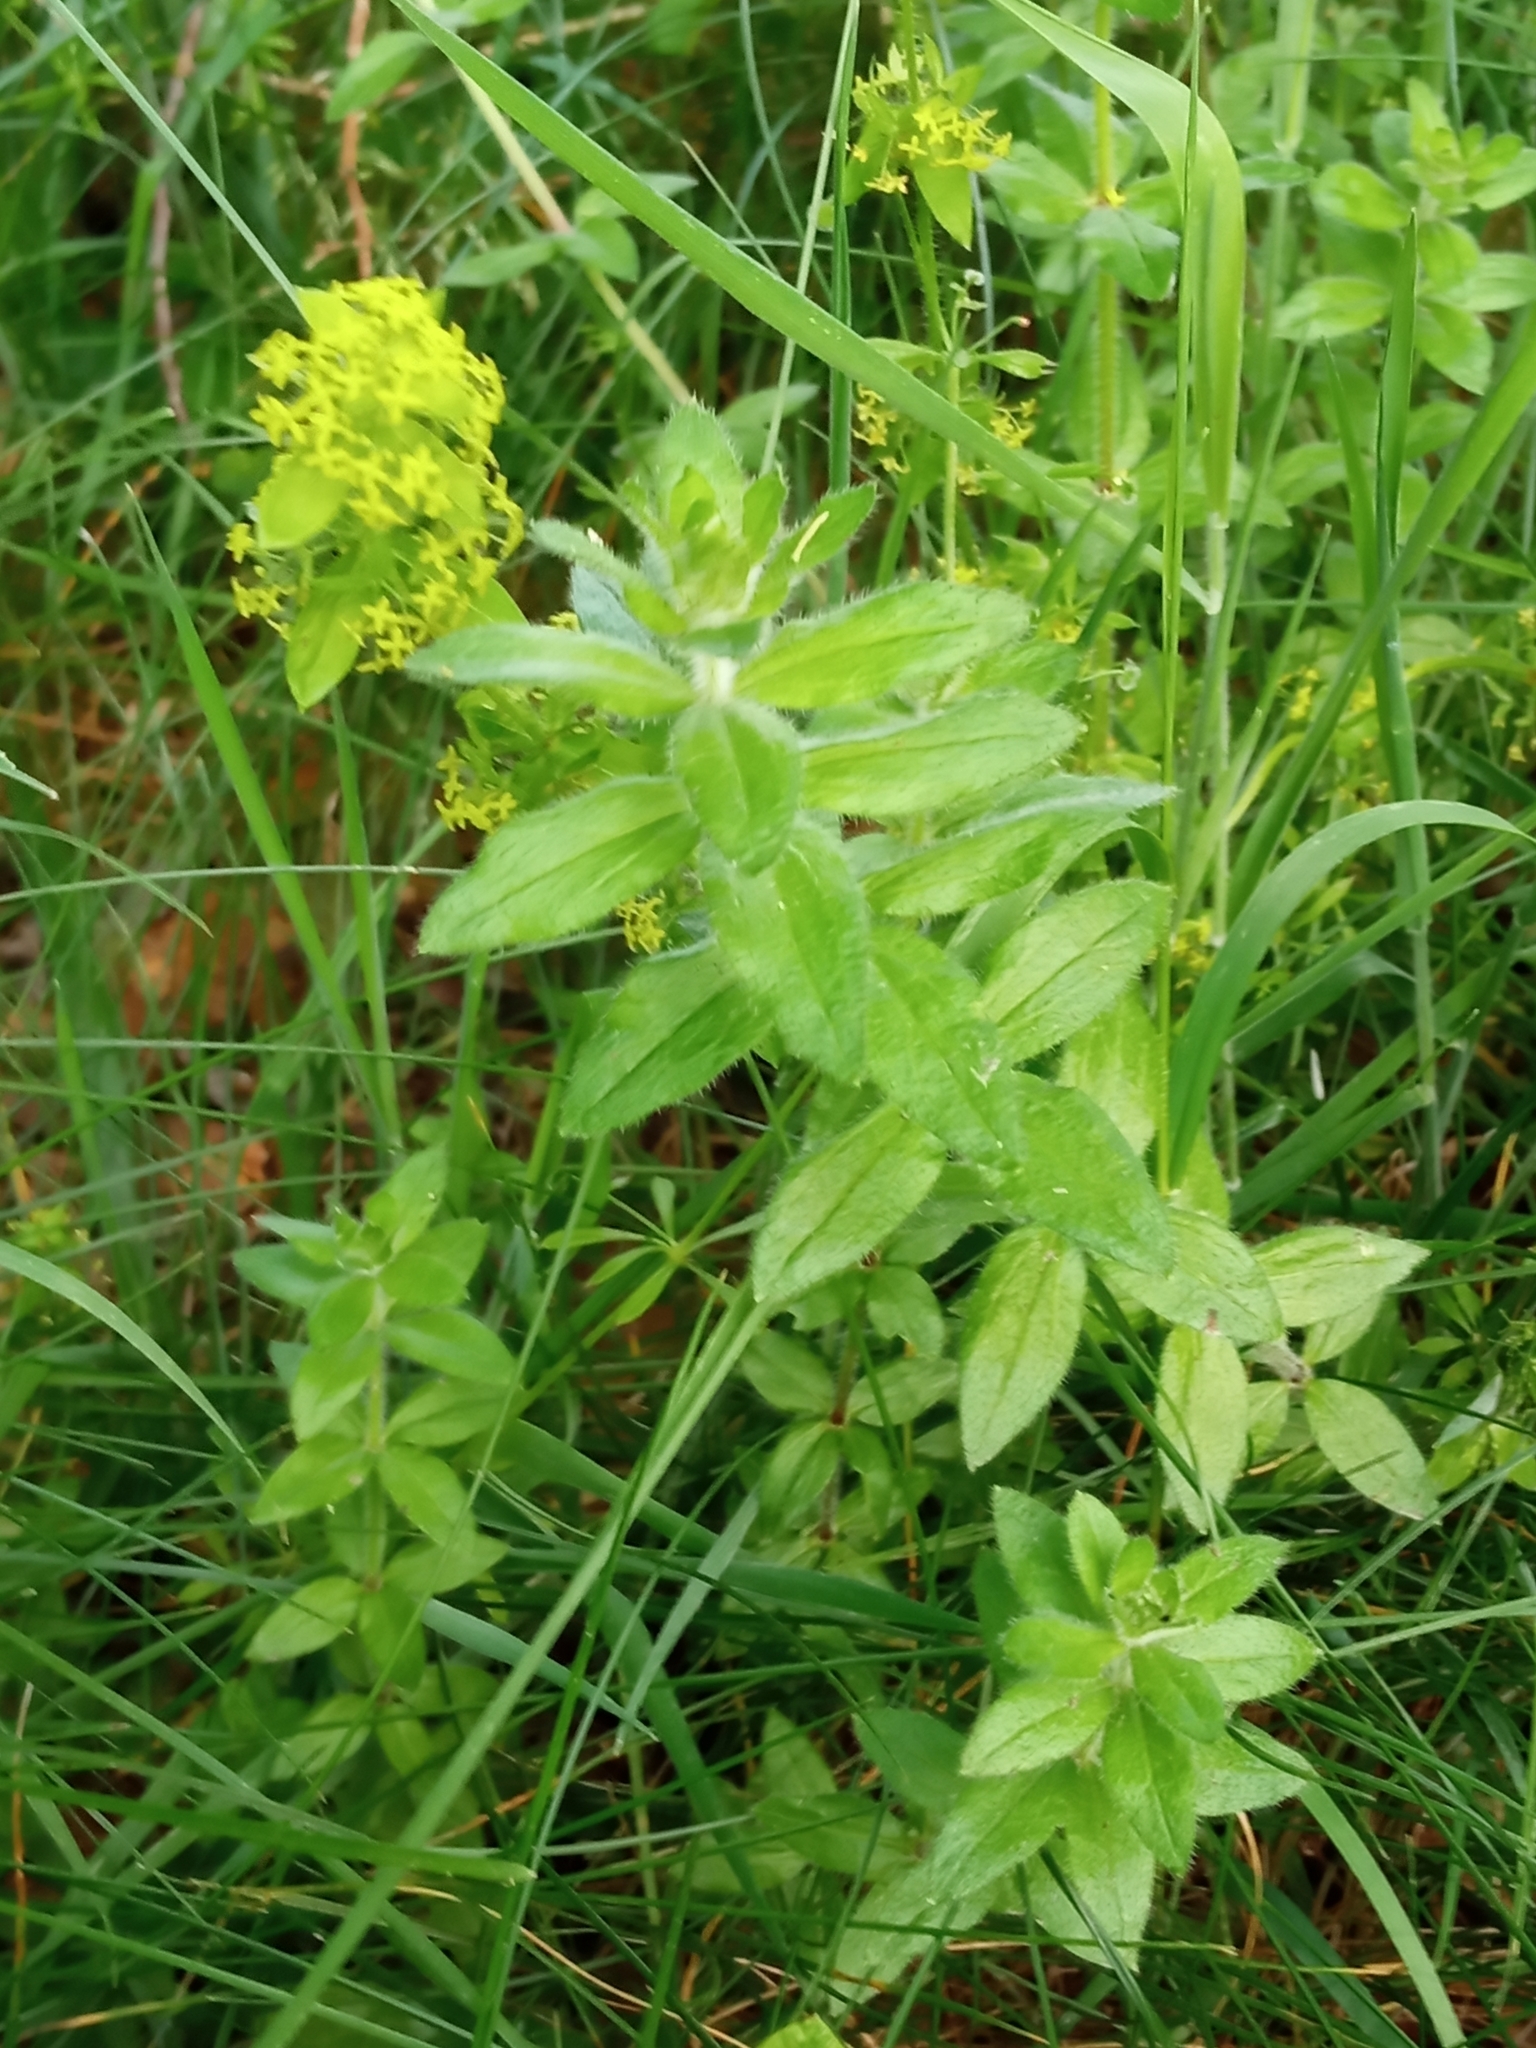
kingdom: Plantae
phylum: Tracheophyta
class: Magnoliopsida
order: Gentianales
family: Rubiaceae
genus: Cruciata
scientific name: Cruciata laevipes
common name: Crosswort
